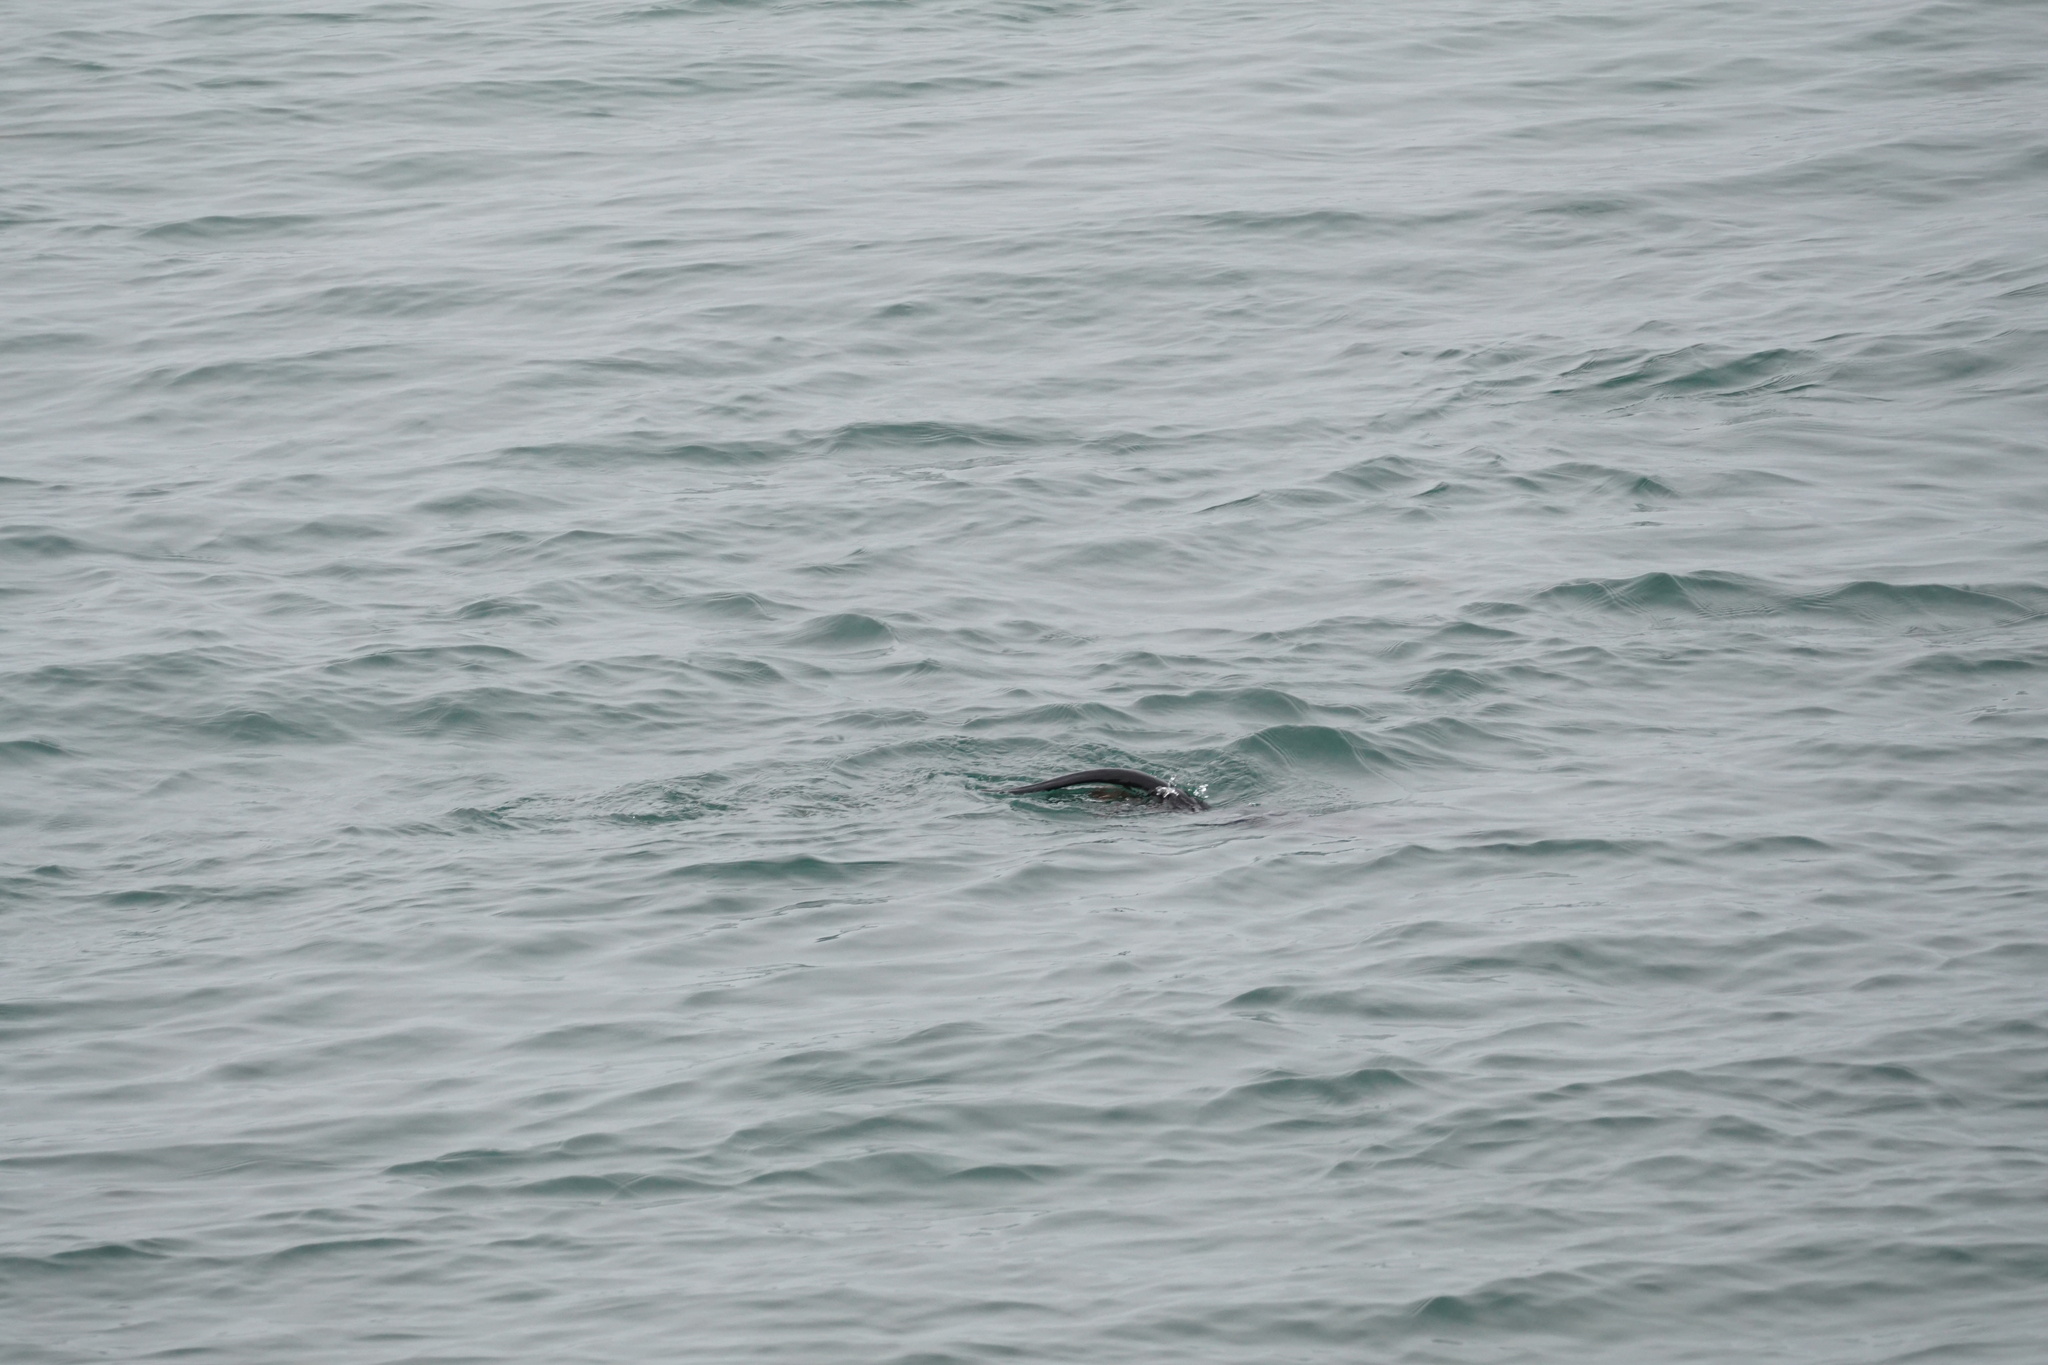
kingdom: Animalia
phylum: Chordata
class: Mammalia
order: Carnivora
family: Mustelidae
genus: Lontra
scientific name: Lontra canadensis
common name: North american river otter
